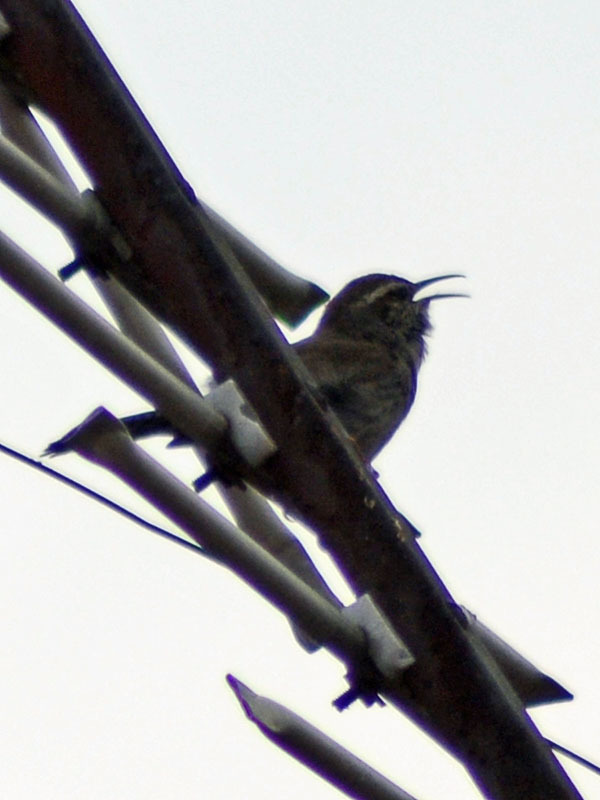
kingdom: Animalia
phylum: Chordata
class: Aves
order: Passeriformes
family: Troglodytidae
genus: Thryomanes
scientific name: Thryomanes bewickii
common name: Bewick's wren
